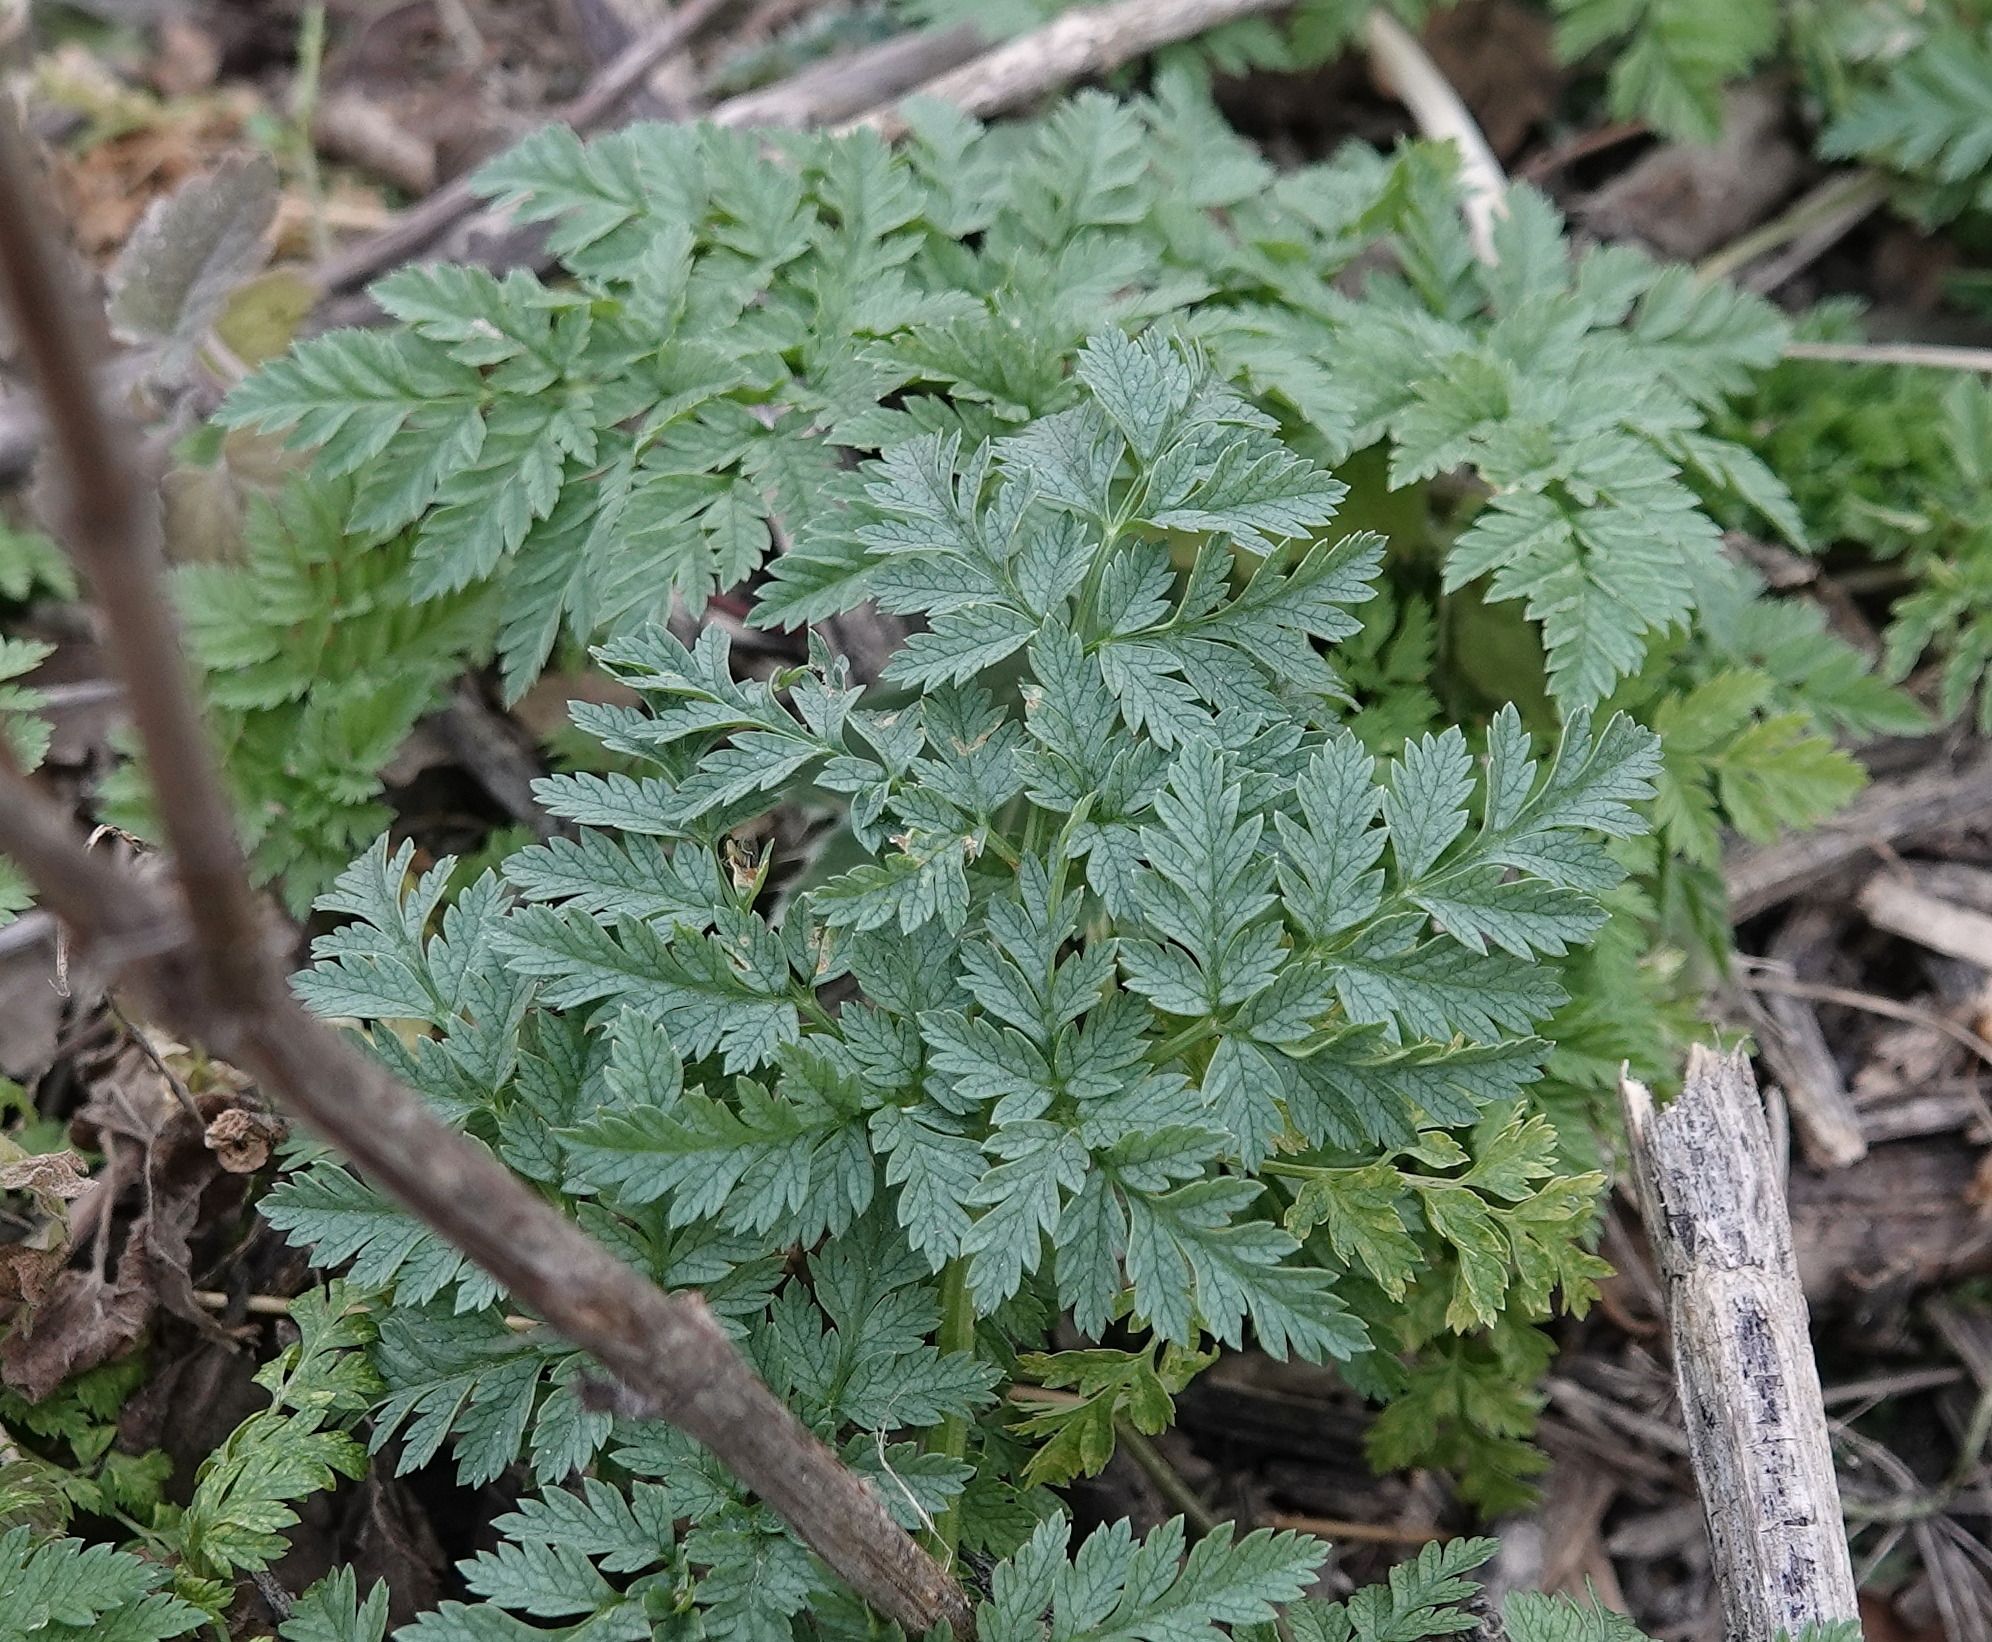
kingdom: Plantae
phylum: Tracheophyta
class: Magnoliopsida
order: Apiales
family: Apiaceae
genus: Conium
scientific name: Conium maculatum
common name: Hemlock
